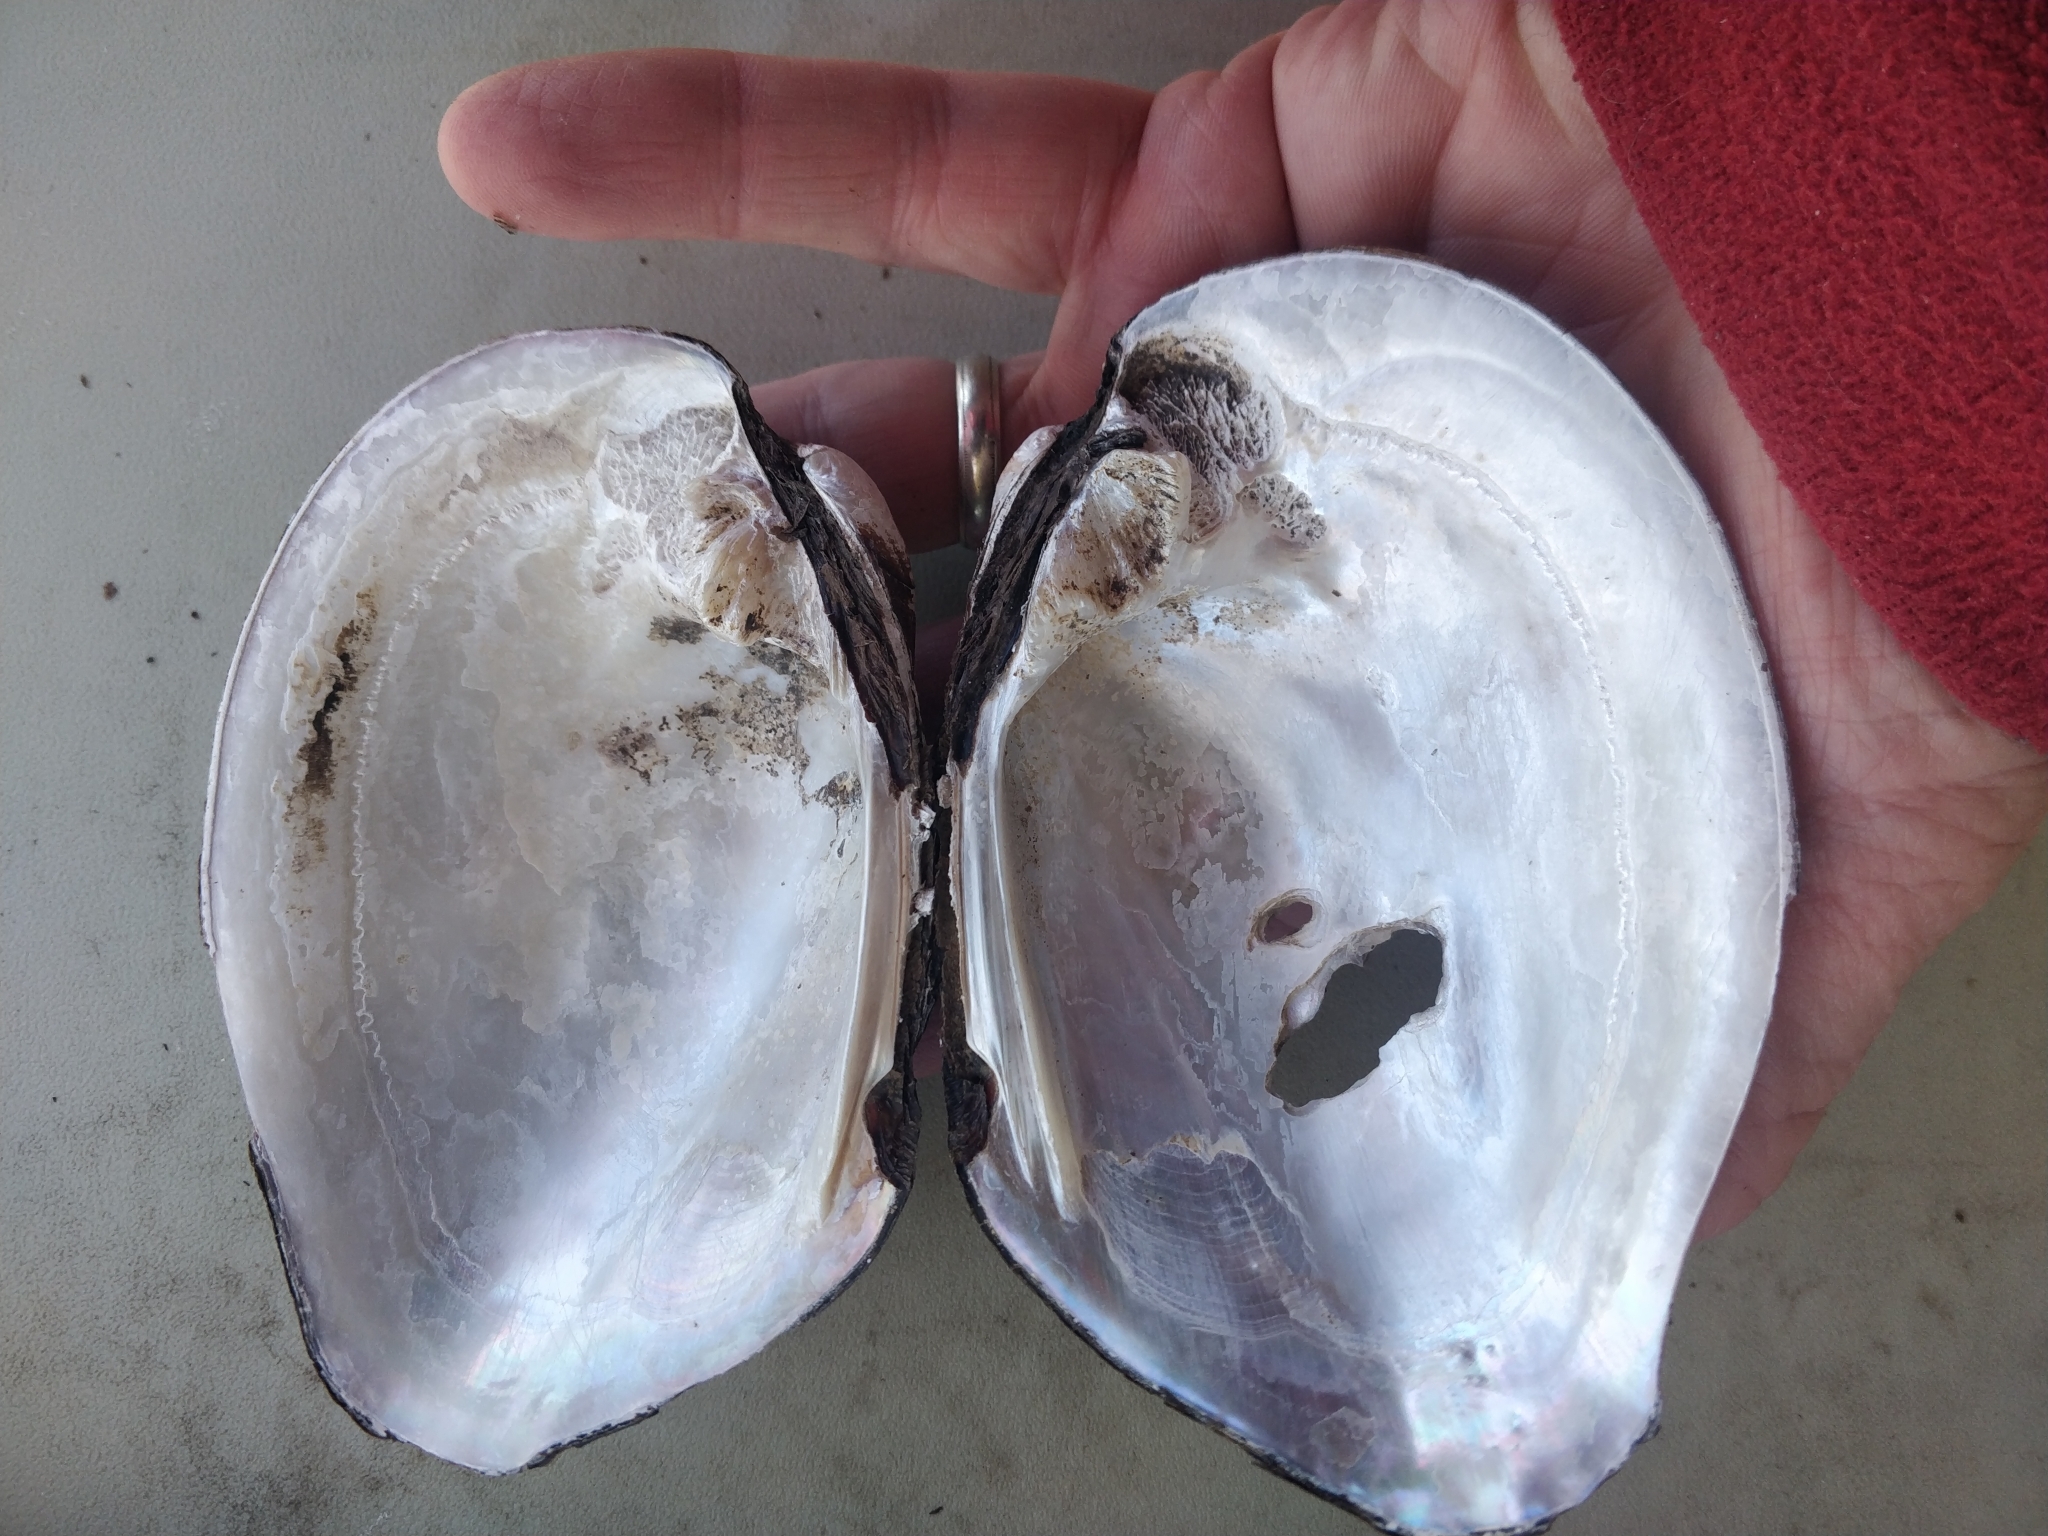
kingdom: Animalia
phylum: Mollusca
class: Bivalvia
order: Unionida
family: Unionidae
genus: Amblema
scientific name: Amblema plicata
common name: Threeridge
